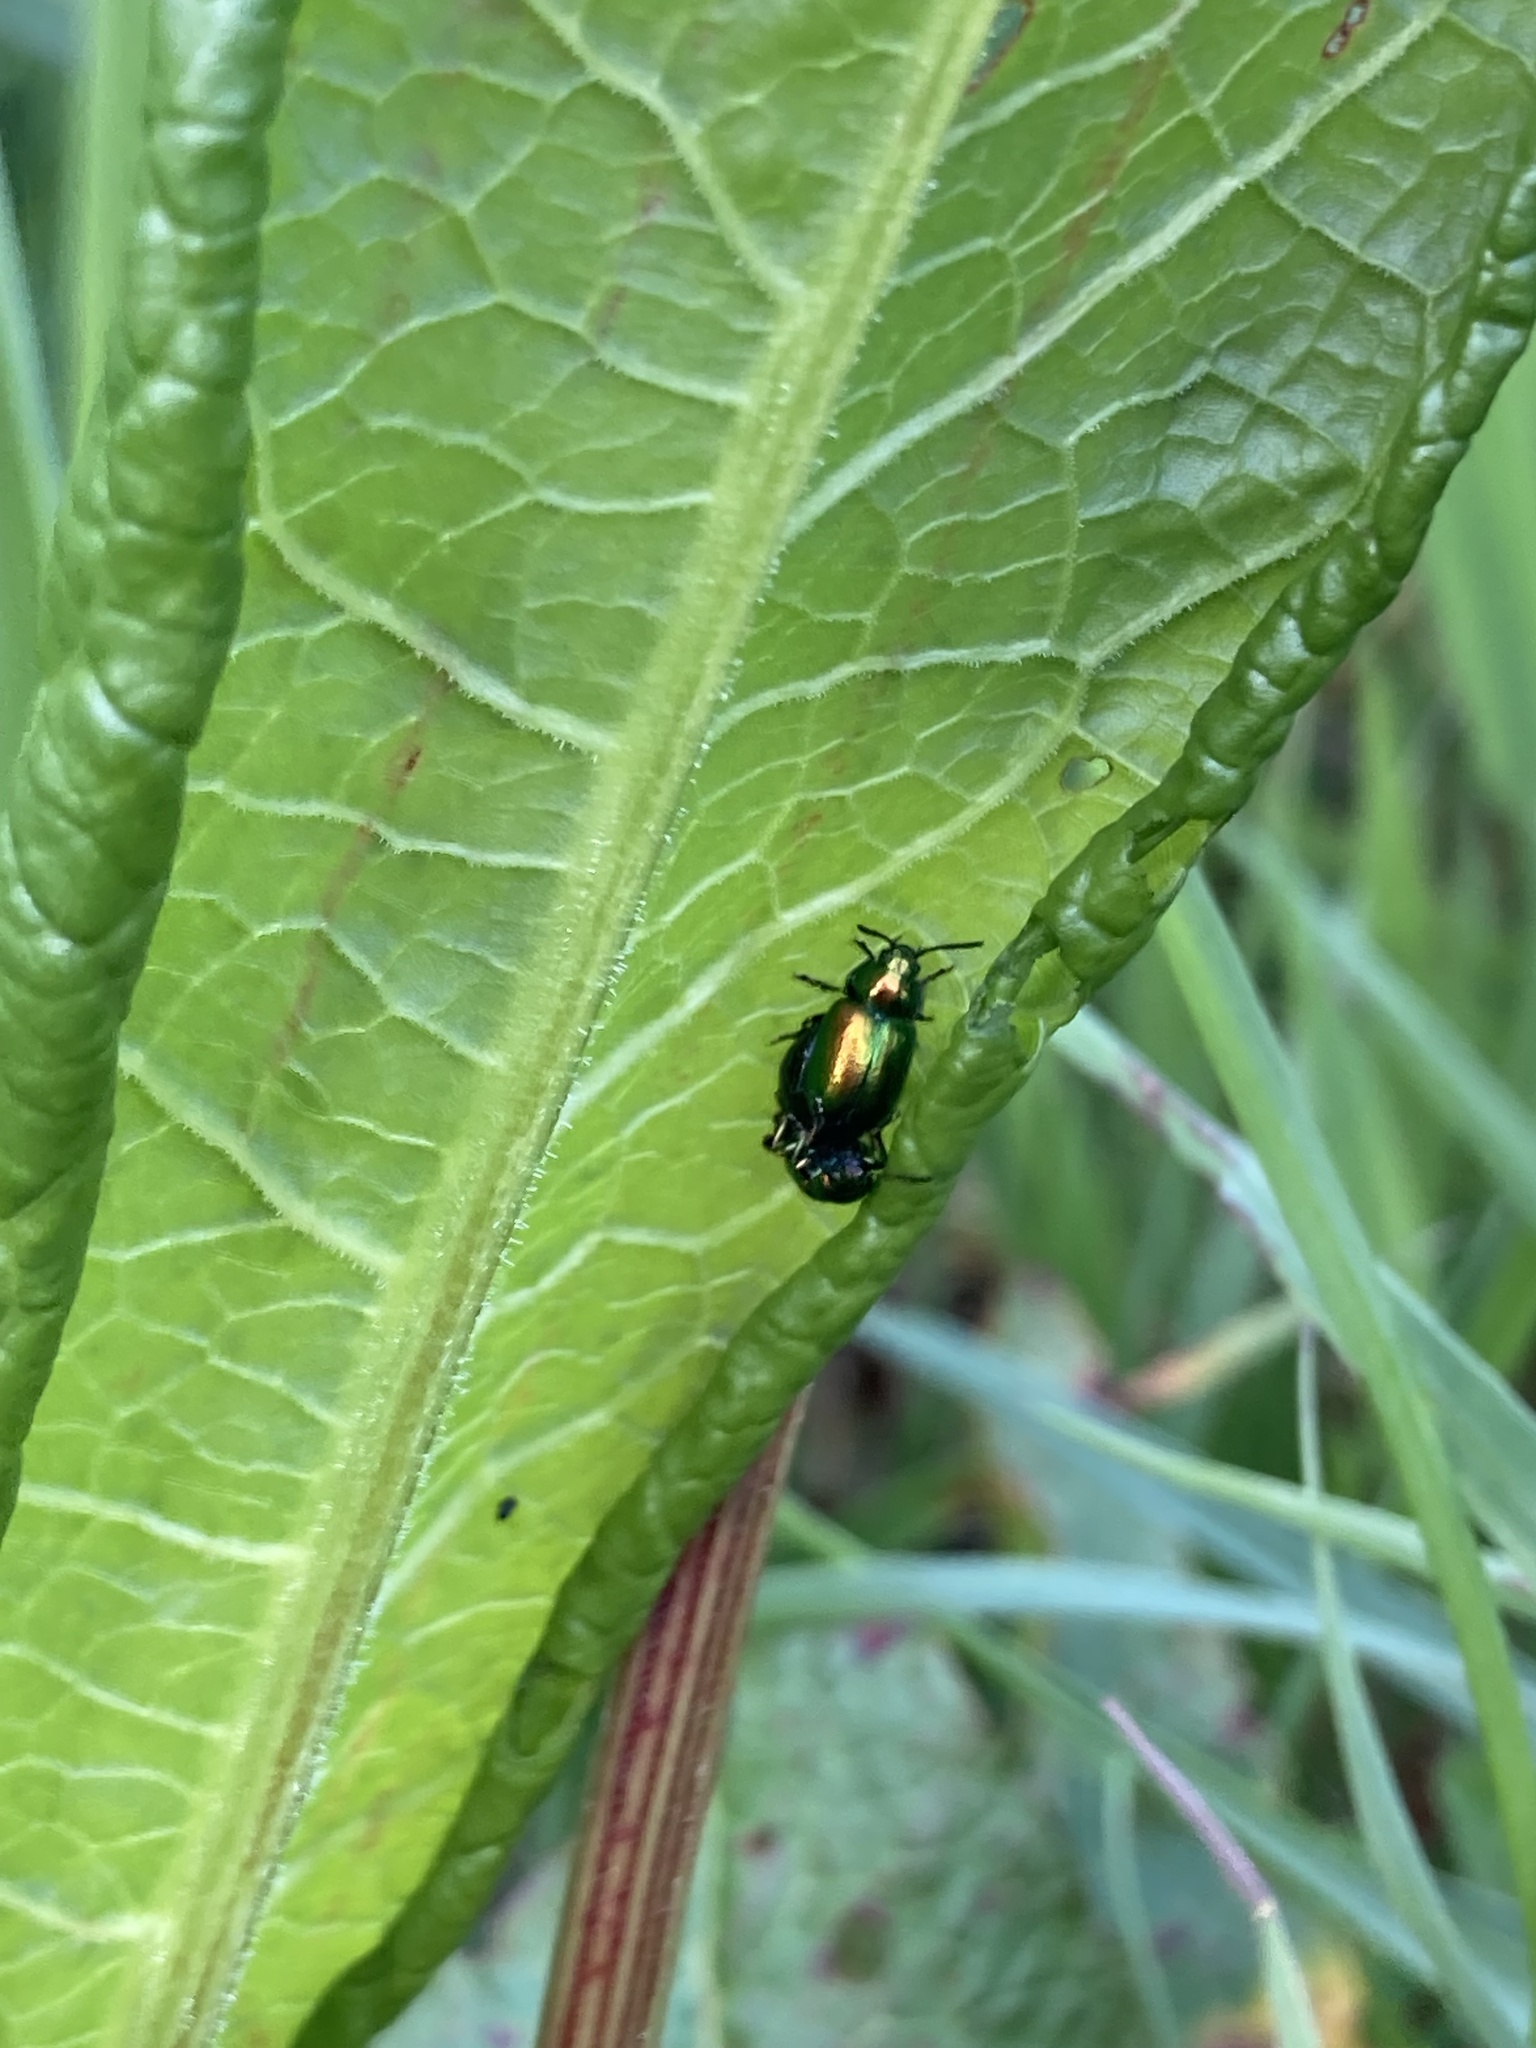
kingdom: Animalia
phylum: Arthropoda
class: Insecta
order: Coleoptera
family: Chrysomelidae
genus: Gastrophysa
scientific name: Gastrophysa viridula
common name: Green dock beetle
